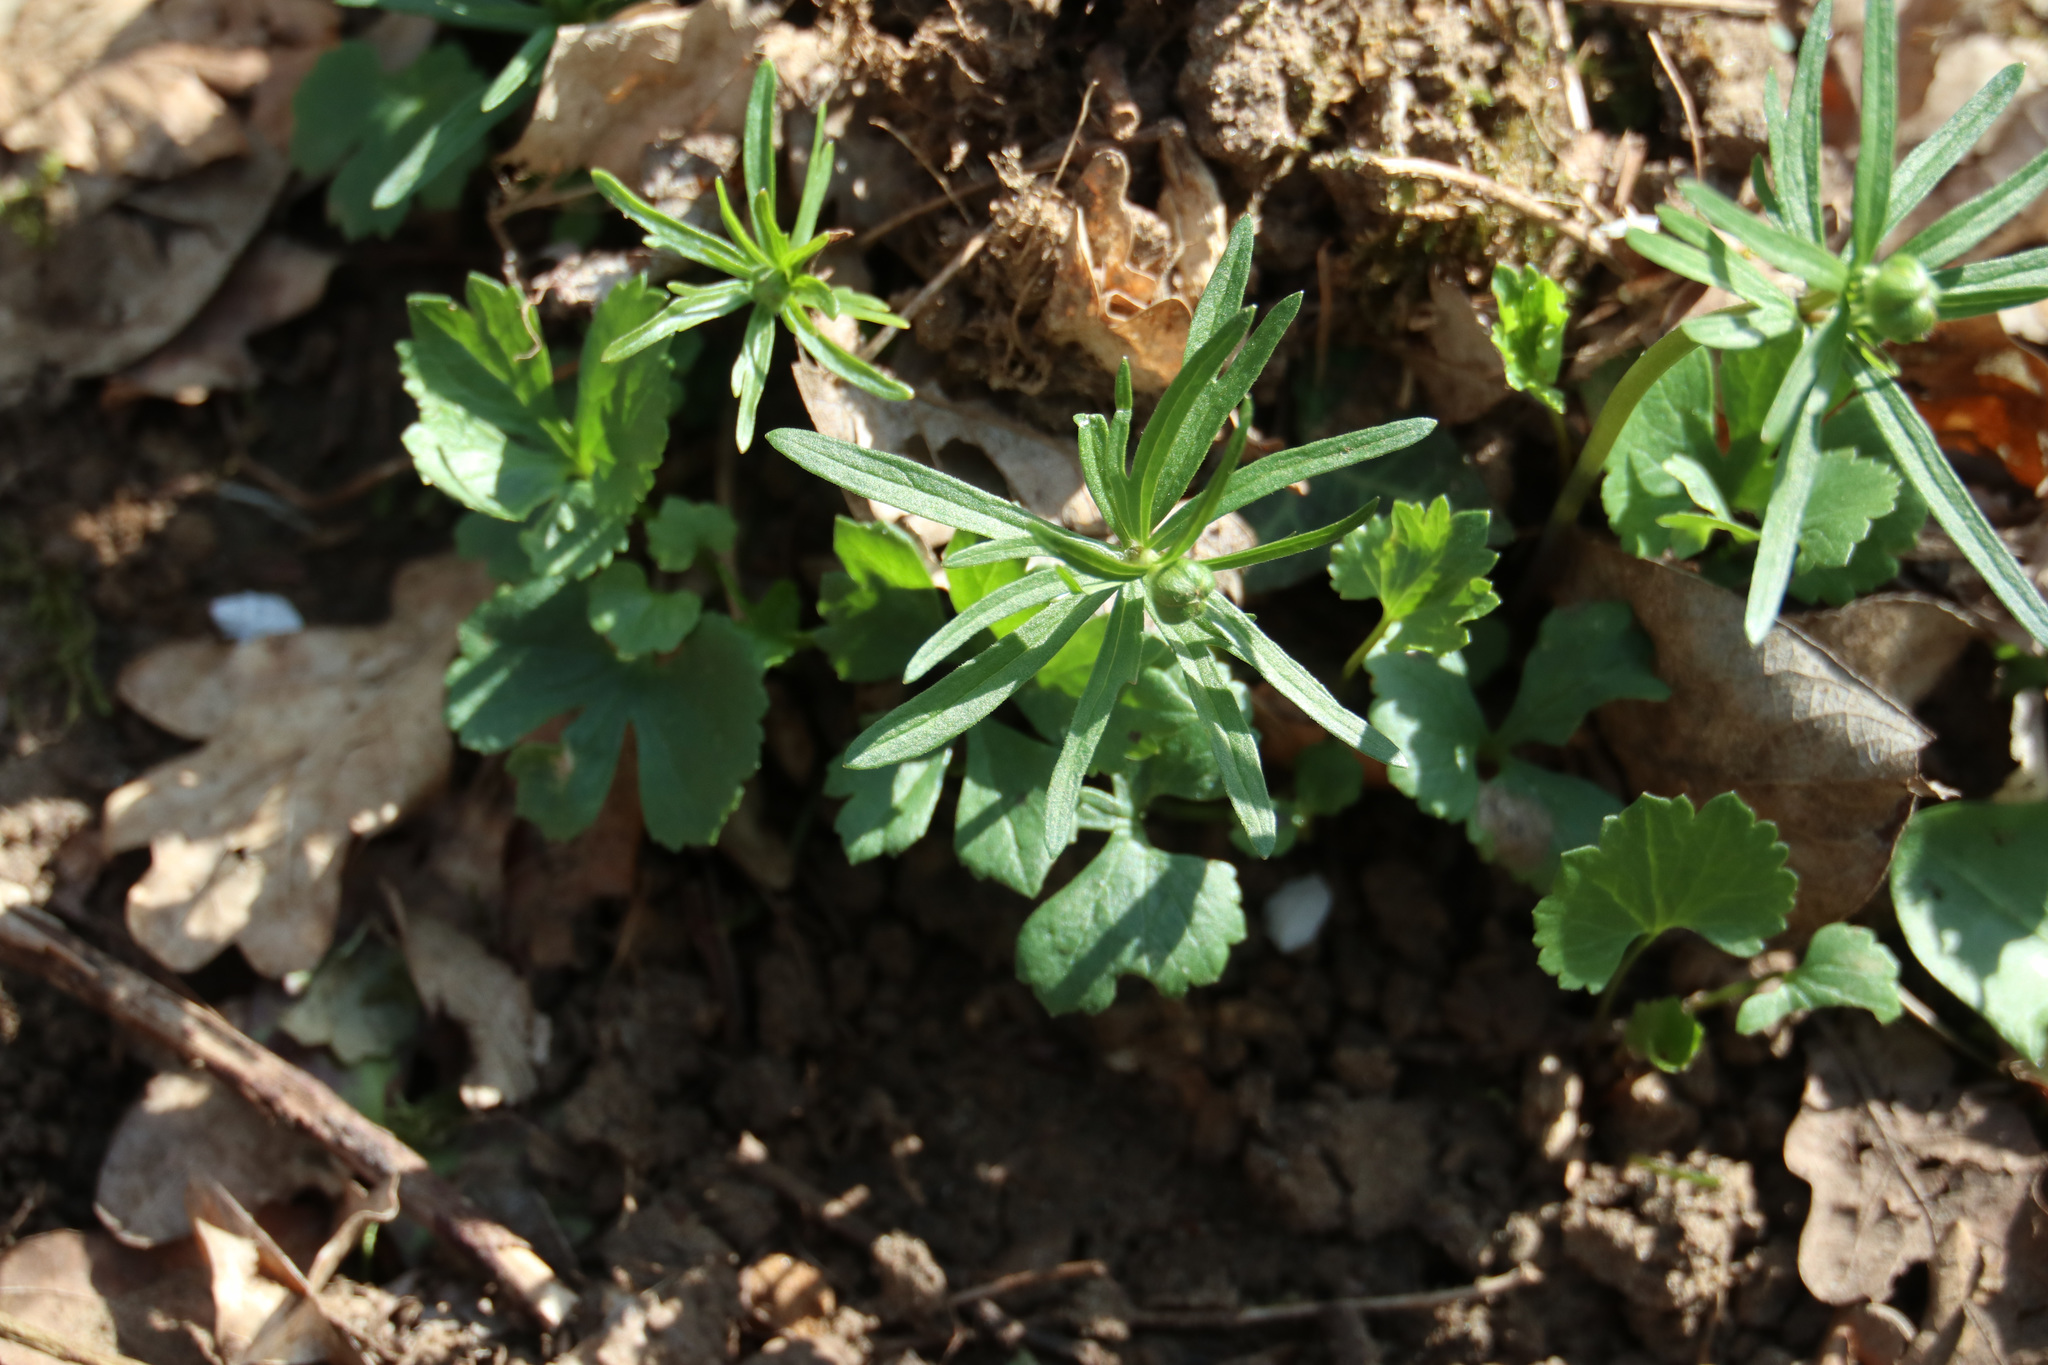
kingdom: Plantae
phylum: Tracheophyta
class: Magnoliopsida
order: Ranunculales
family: Ranunculaceae
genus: Ranunculus
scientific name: Ranunculus auricomus
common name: Goldilocks buttercup
